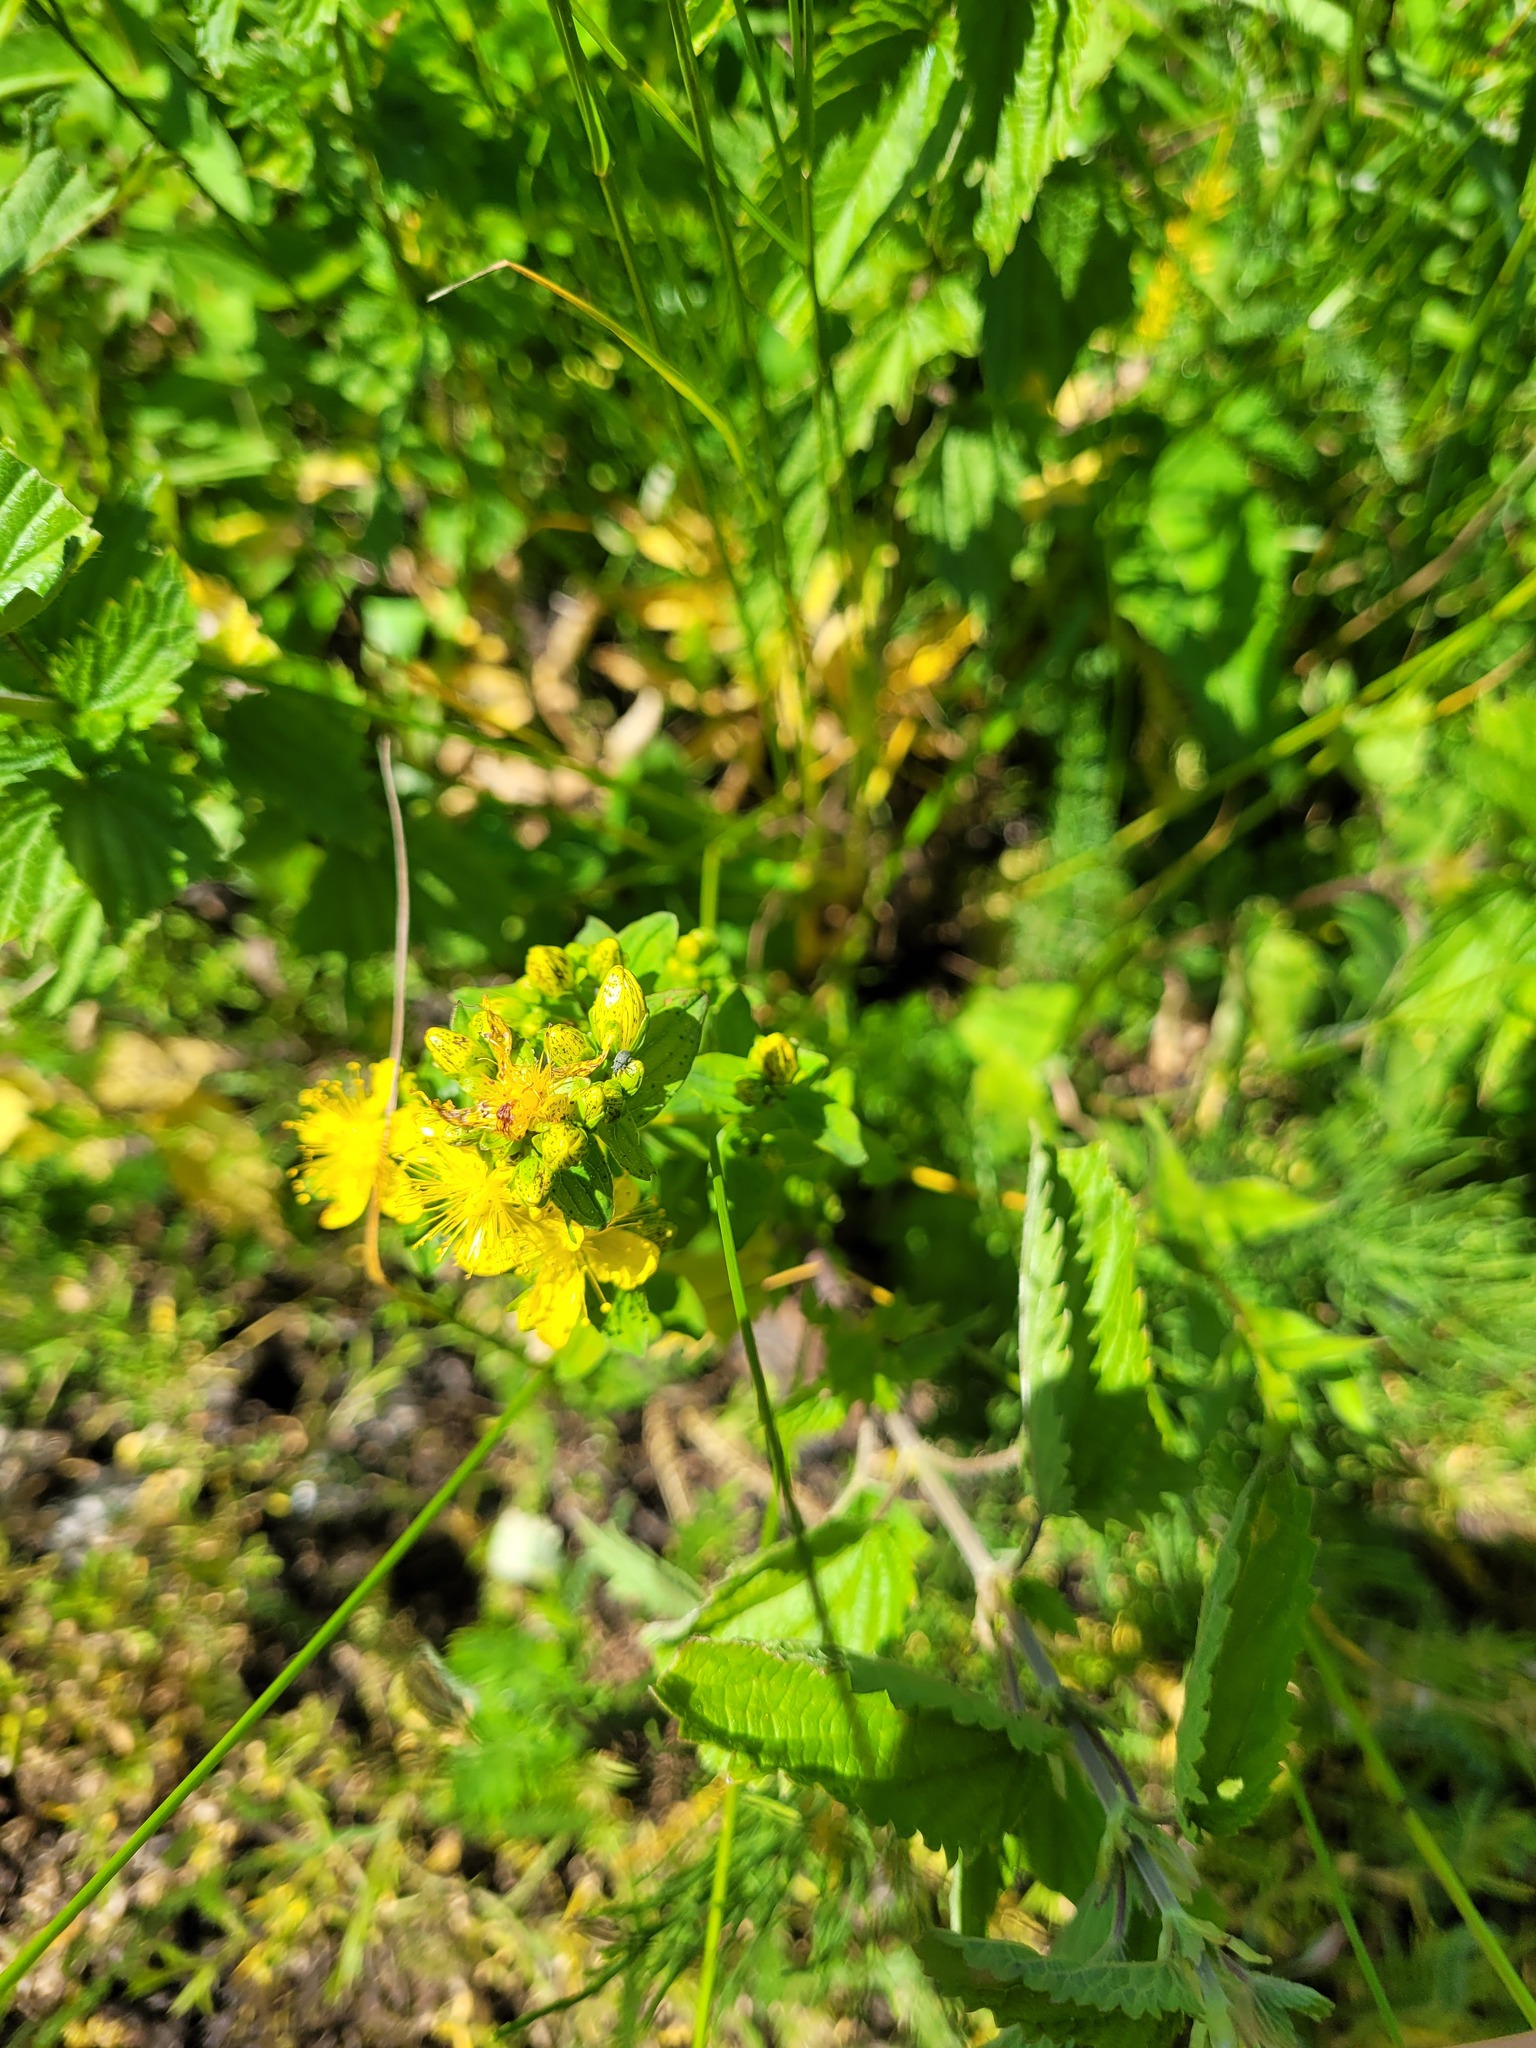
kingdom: Plantae
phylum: Tracheophyta
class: Magnoliopsida
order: Malpighiales
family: Hypericaceae
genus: Hypericum
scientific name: Hypericum maculatum
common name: Imperforate st. john's-wort
